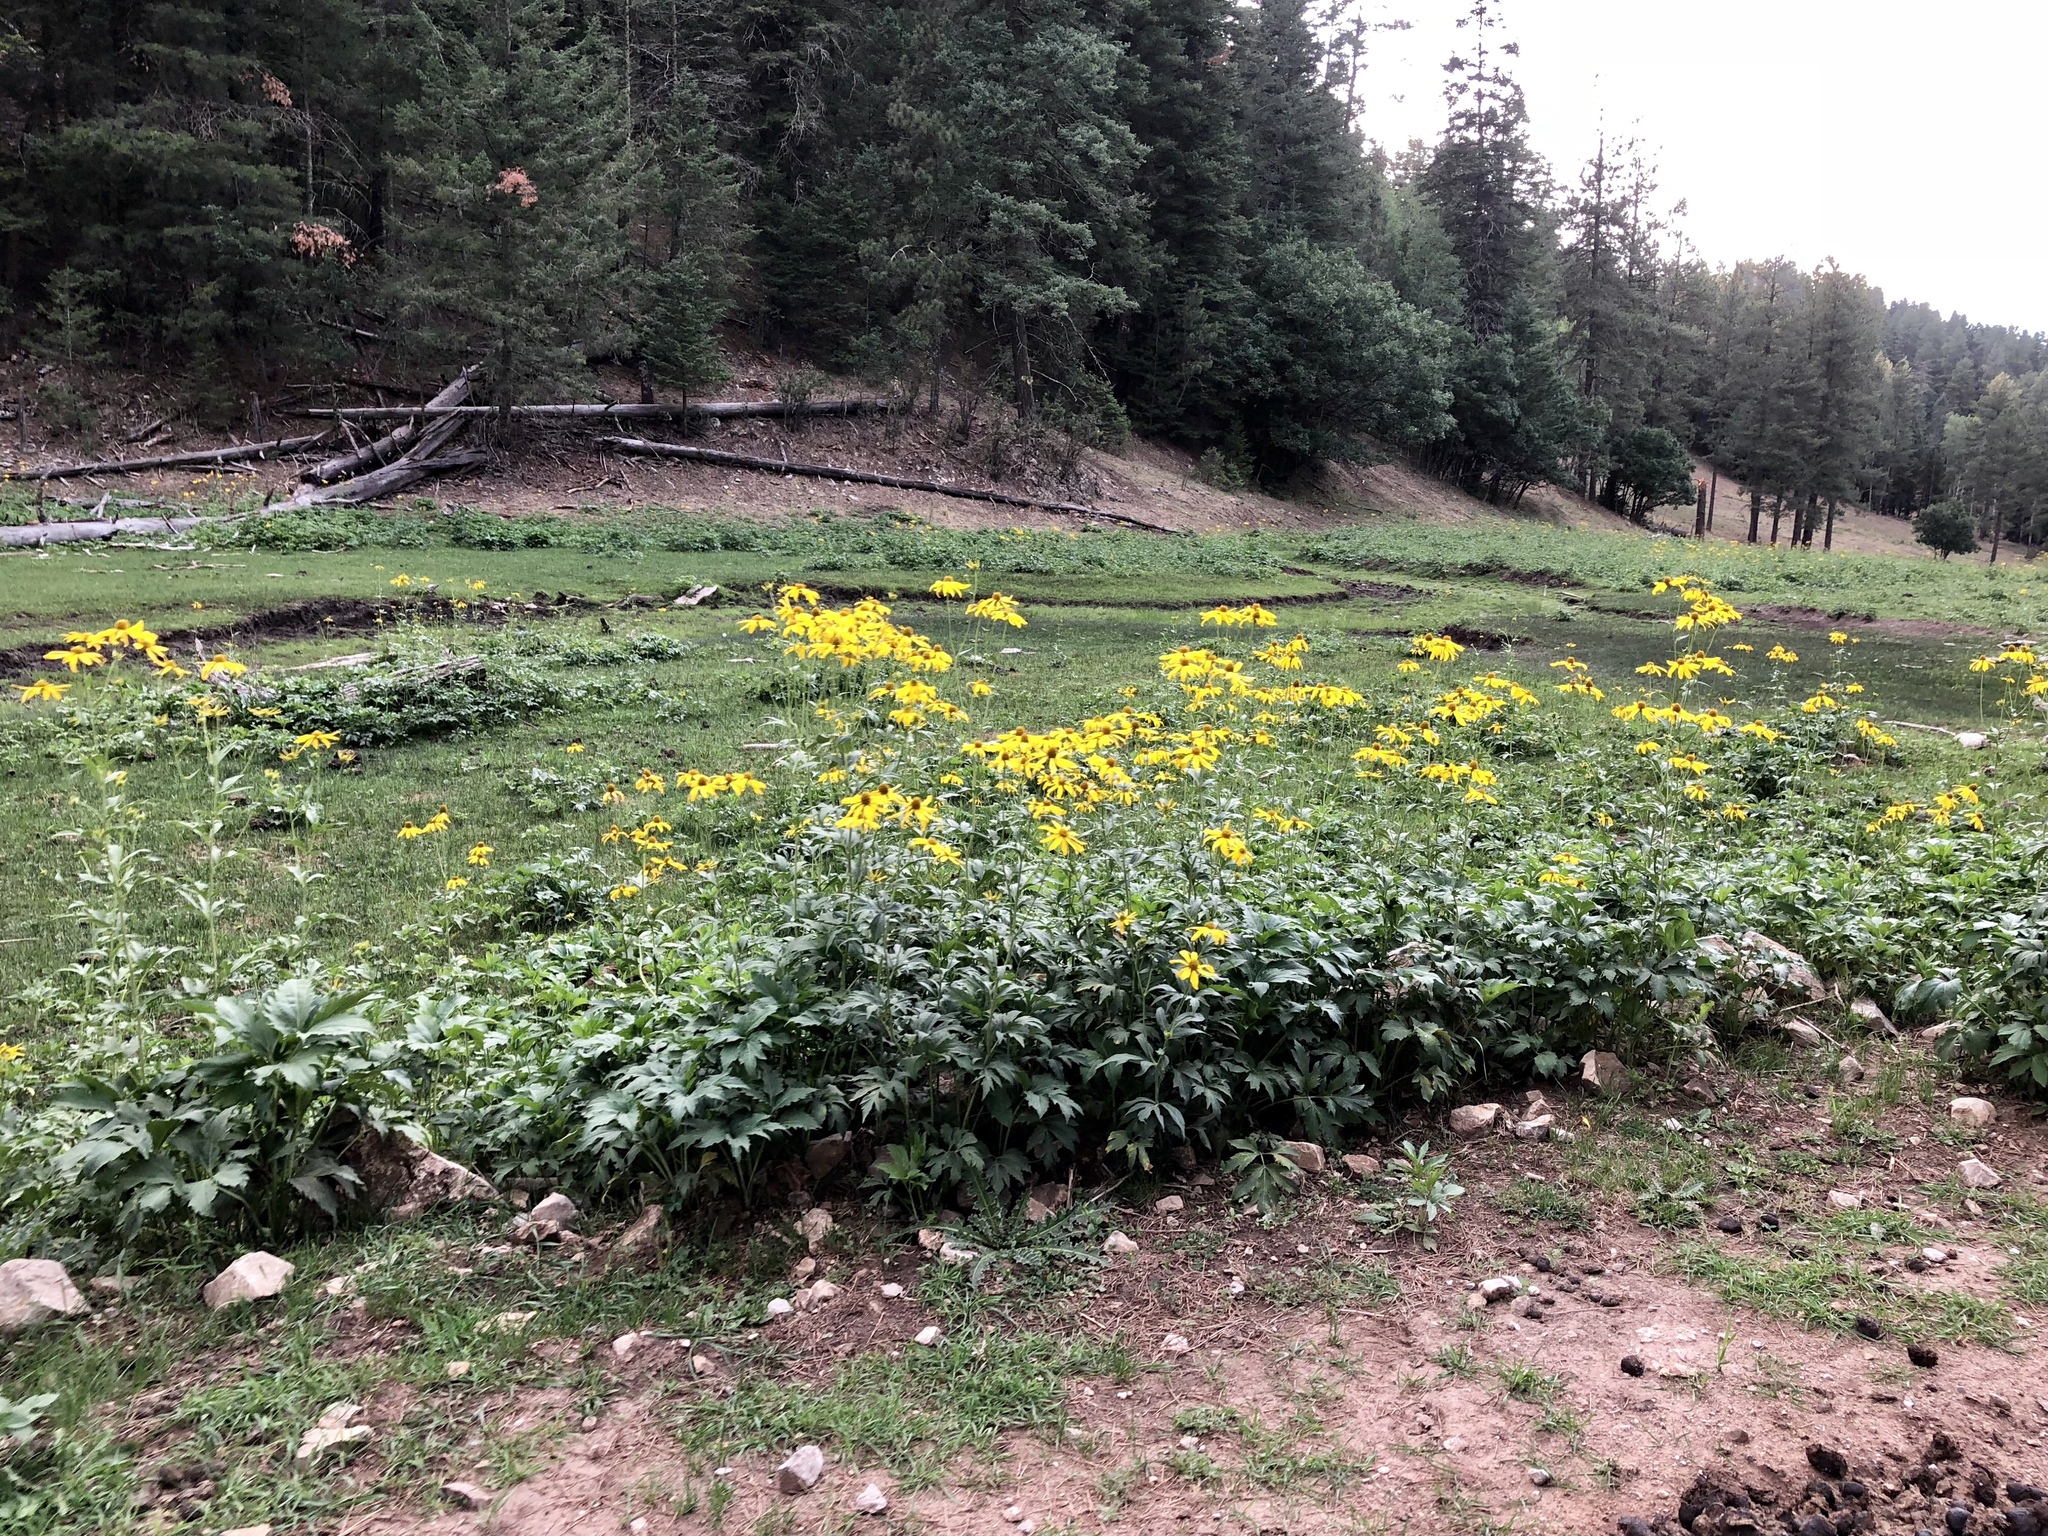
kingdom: Plantae
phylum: Tracheophyta
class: Magnoliopsida
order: Asterales
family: Asteraceae
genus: Rudbeckia
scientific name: Rudbeckia laciniata
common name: Coneflower
